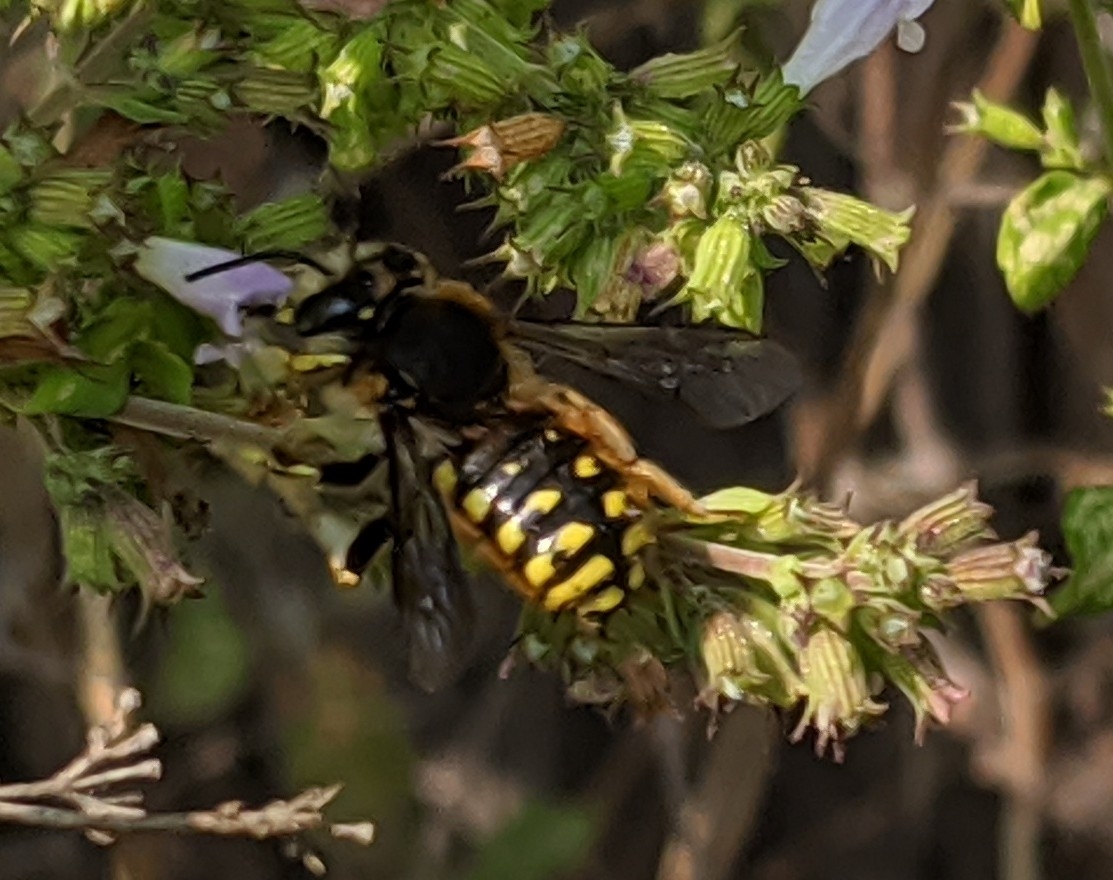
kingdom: Animalia
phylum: Arthropoda
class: Insecta
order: Hymenoptera
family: Megachilidae
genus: Anthidium
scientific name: Anthidium manicatum
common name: Wool carder bee
